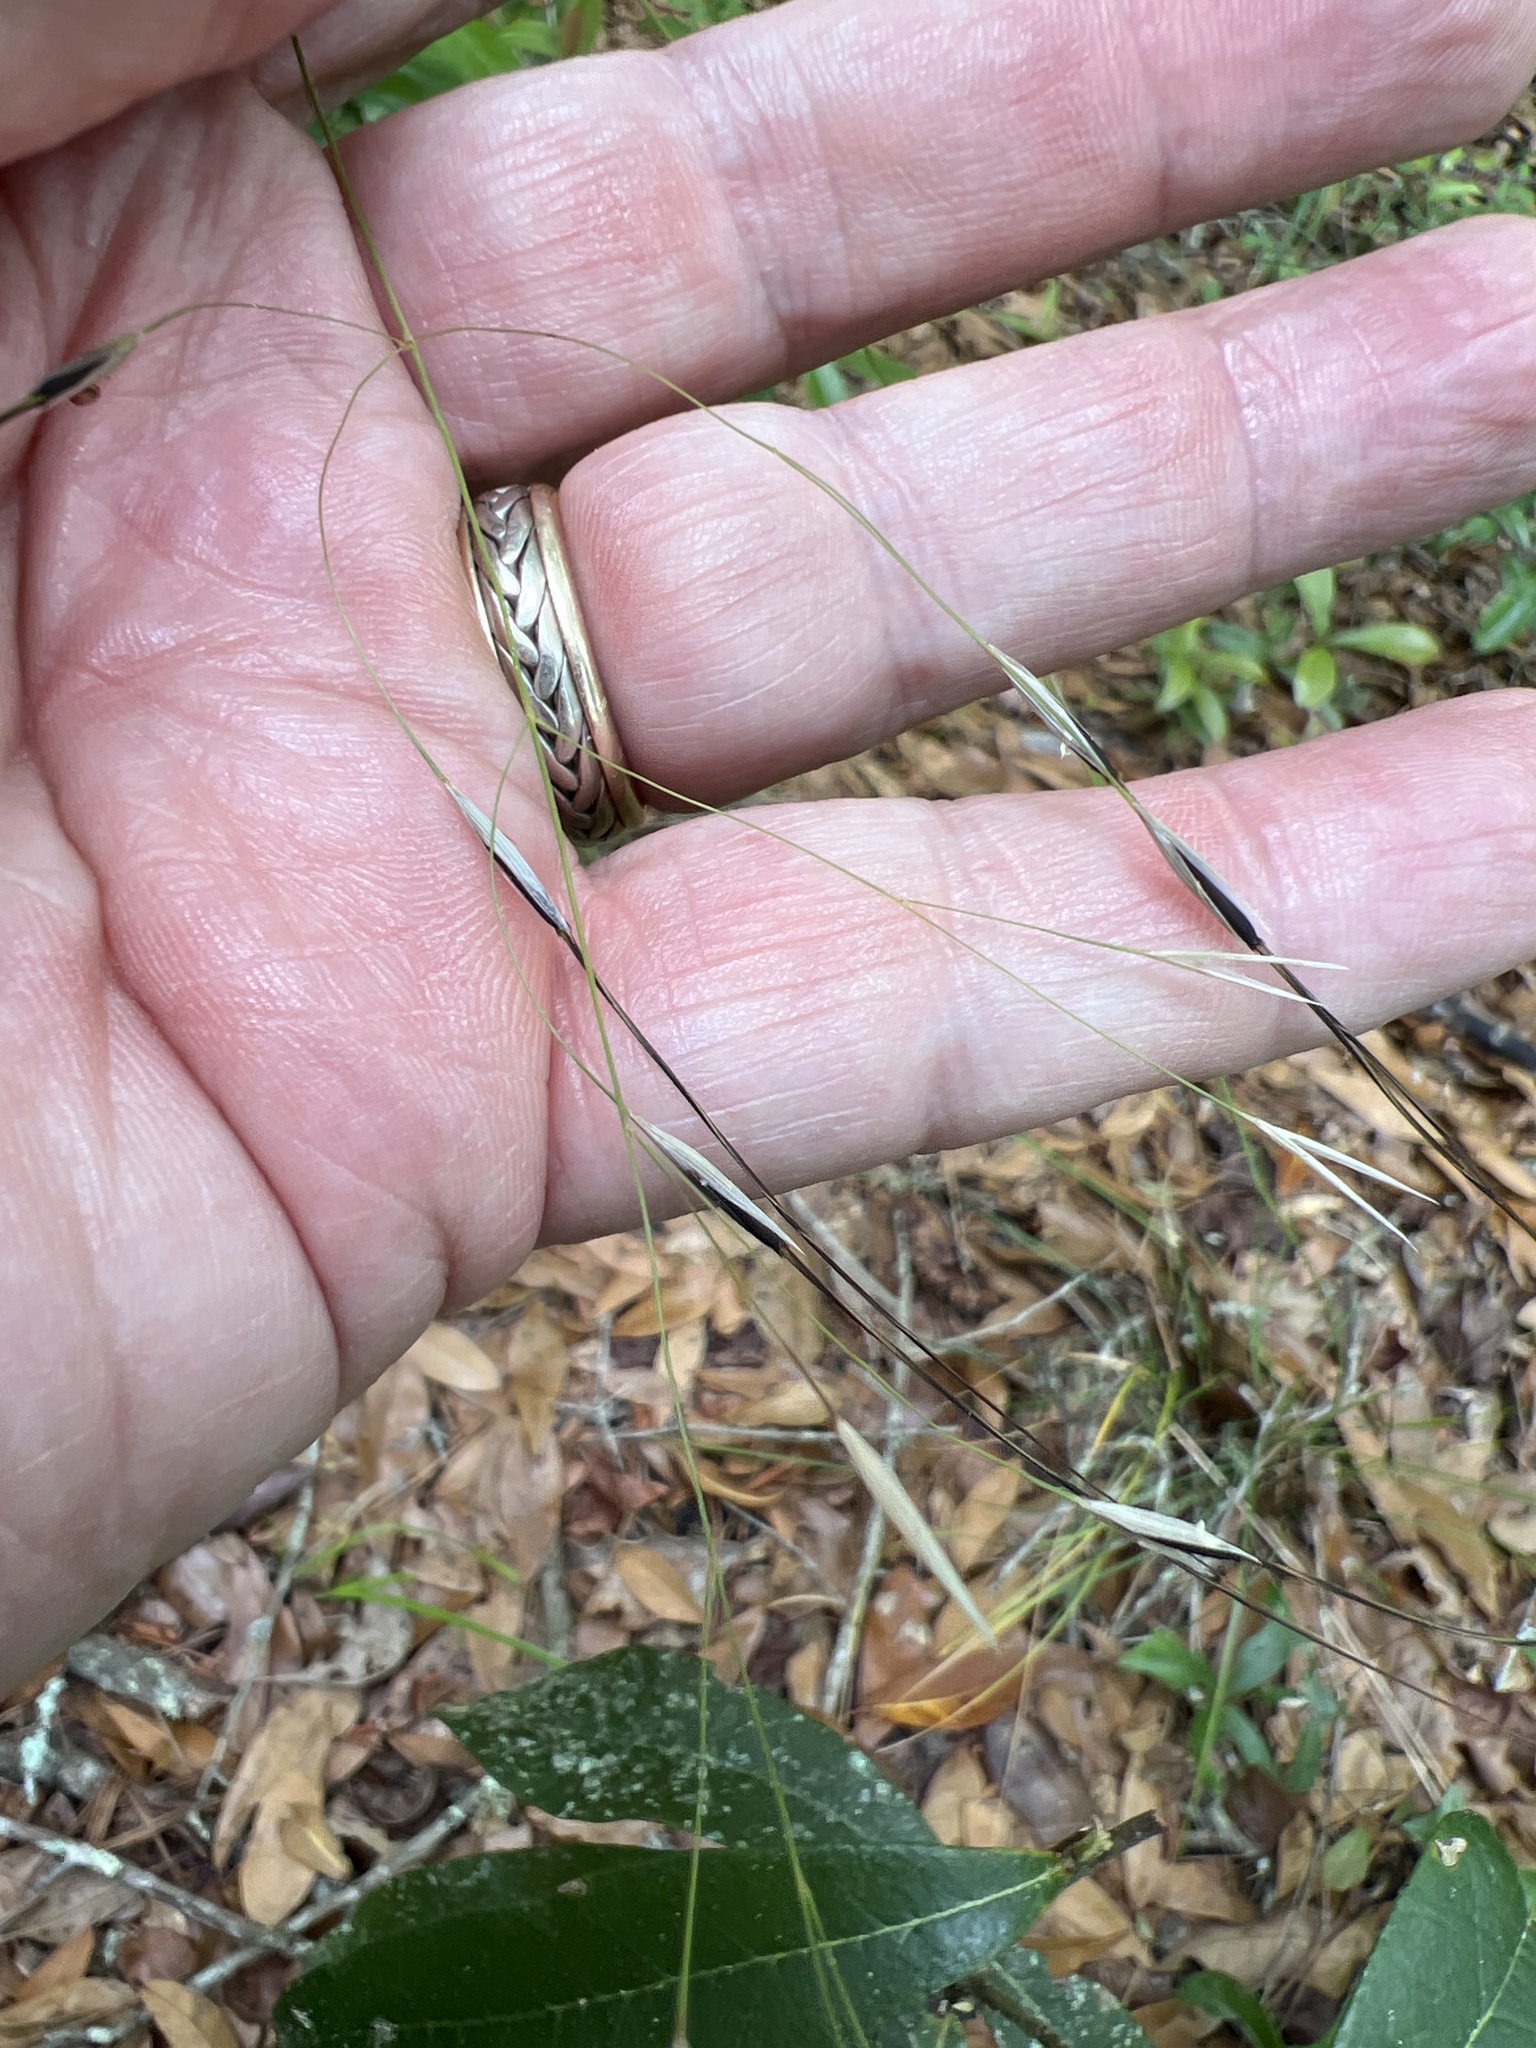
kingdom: Plantae
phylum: Tracheophyta
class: Liliopsida
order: Poales
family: Poaceae
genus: Piptochaetium
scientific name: Piptochaetium avenaceum
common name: Black bunchgrass
